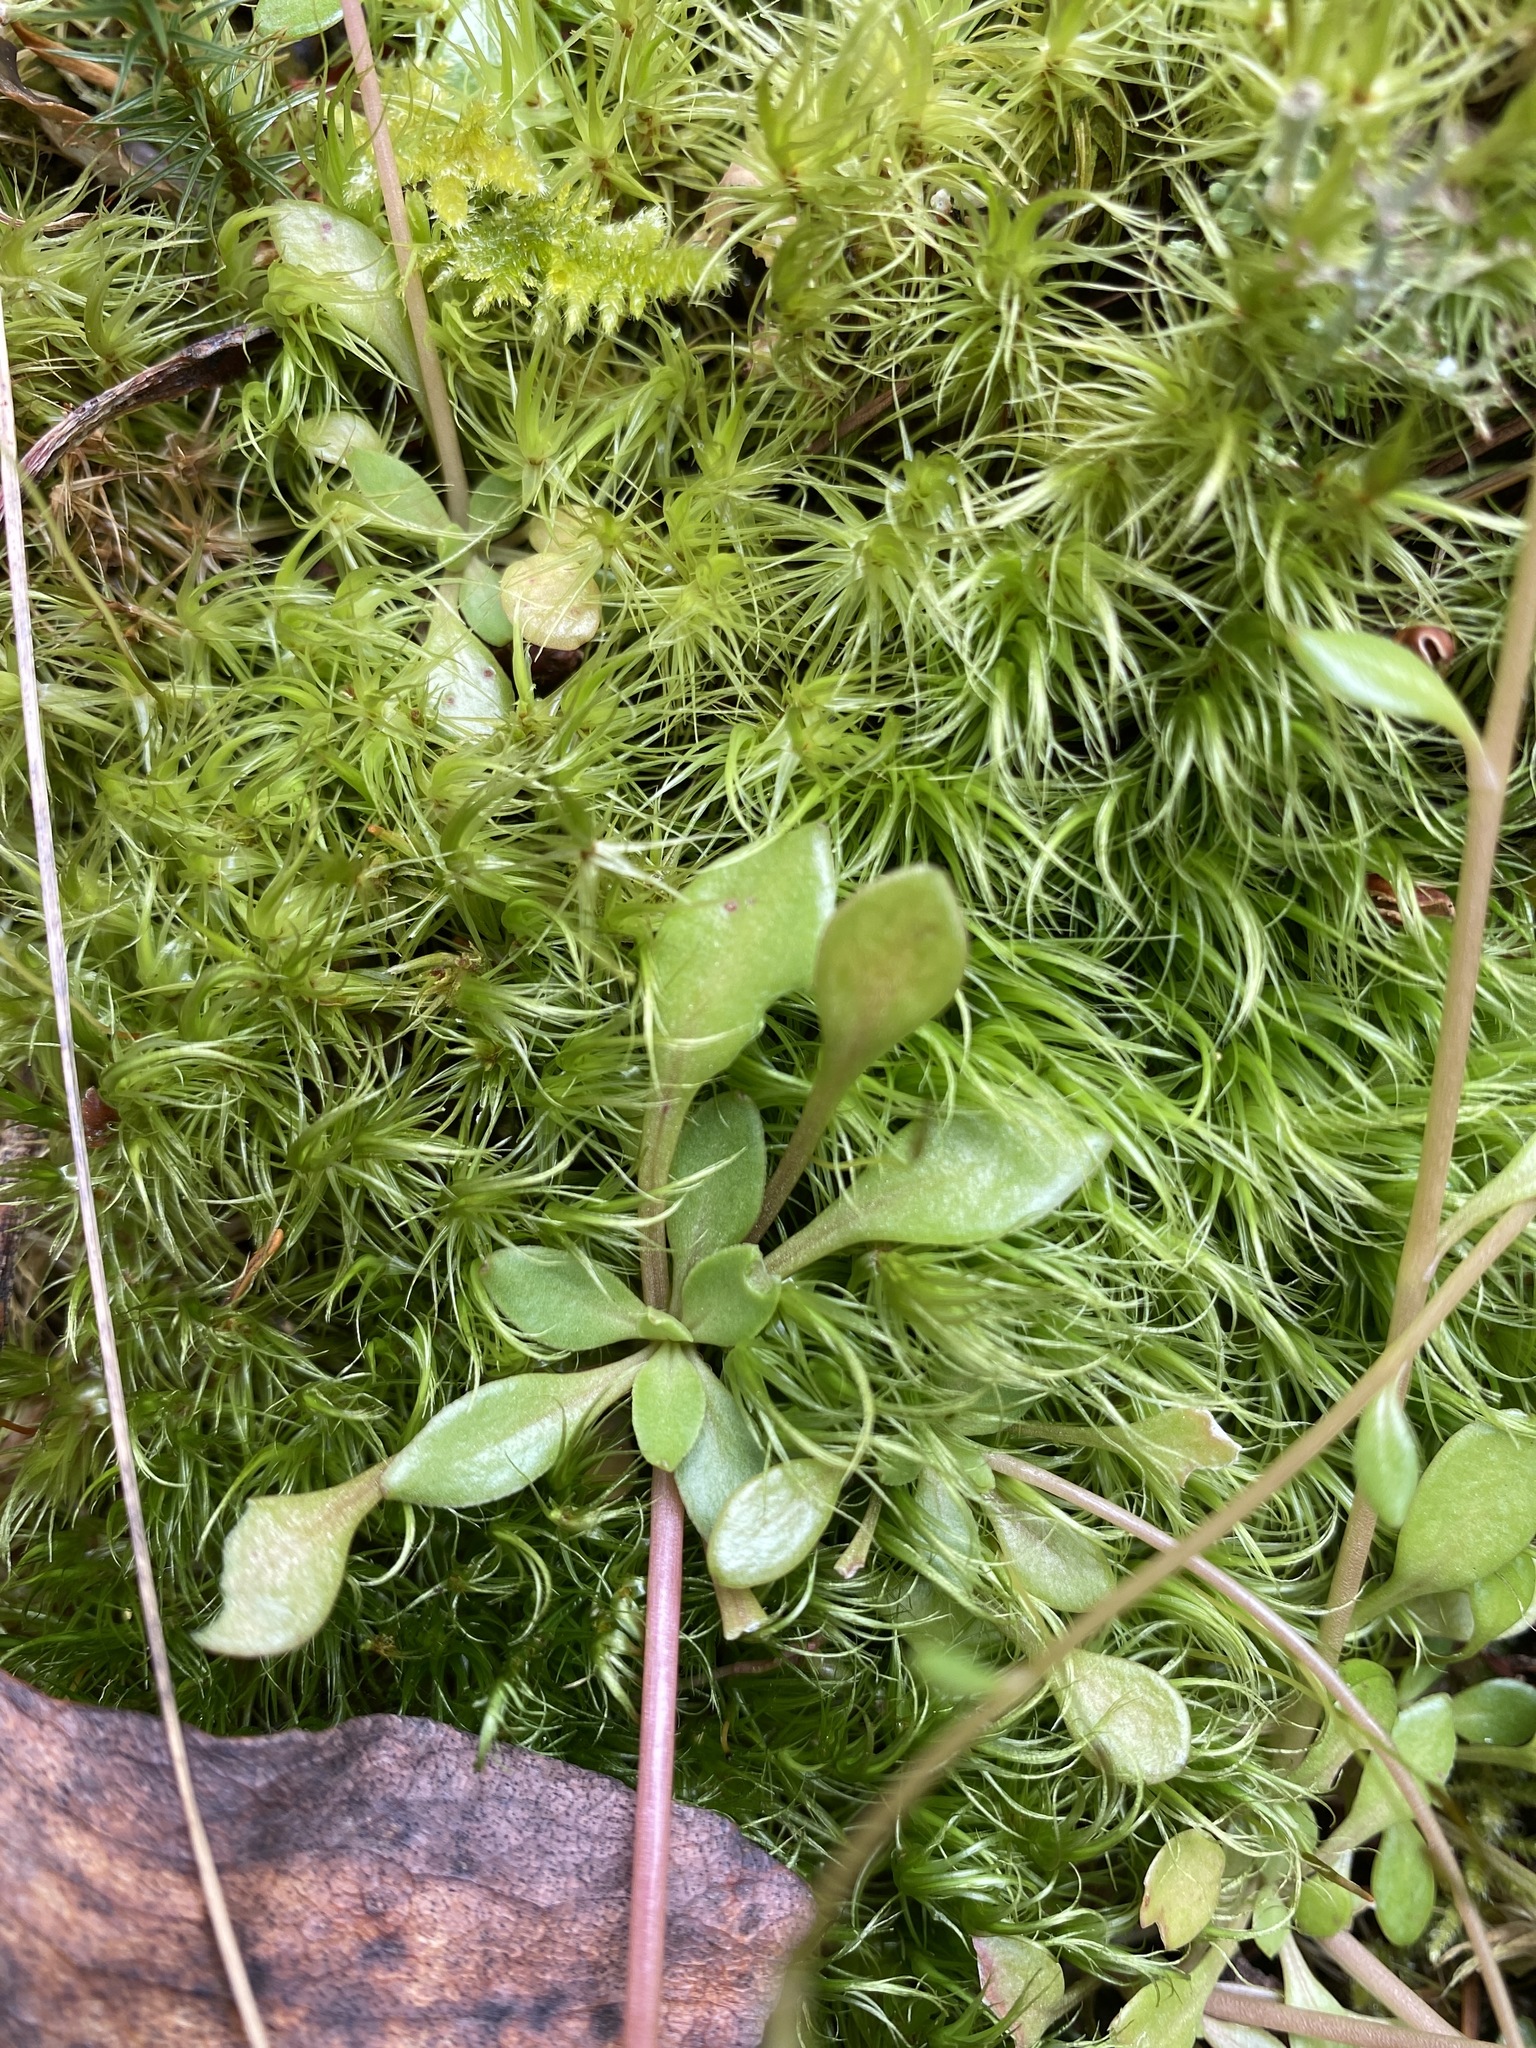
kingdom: Plantae
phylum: Tracheophyta
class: Magnoliopsida
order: Caryophyllales
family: Montiaceae
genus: Montia
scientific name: Montia parvifolia
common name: Small-leaved blinks
